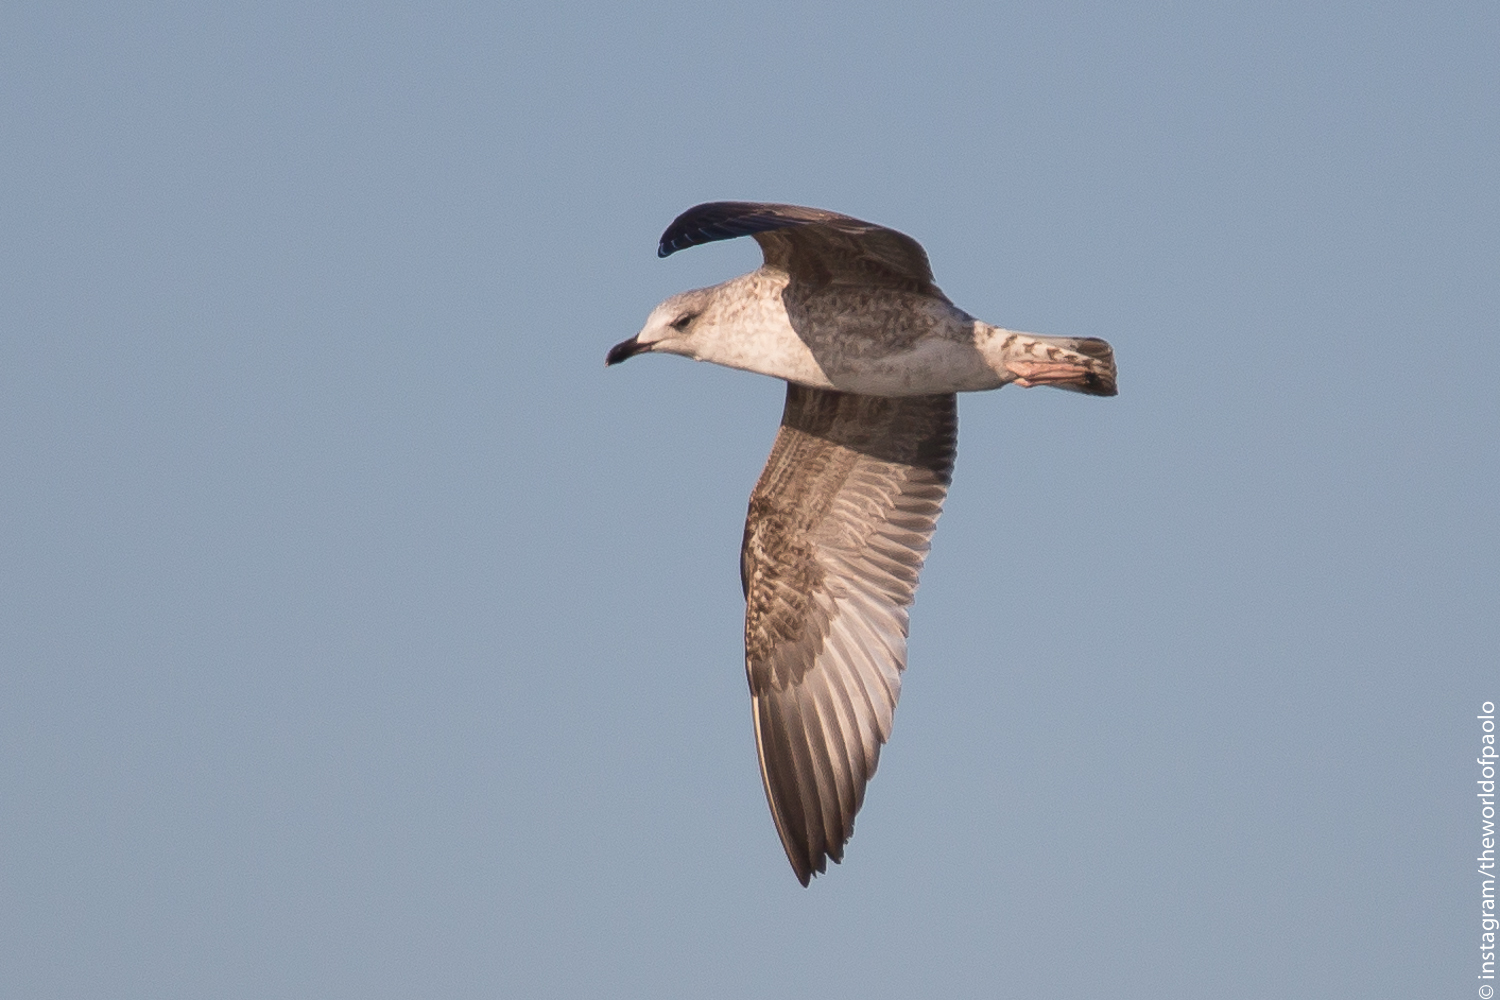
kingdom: Animalia
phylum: Chordata
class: Aves
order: Charadriiformes
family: Laridae
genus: Larus
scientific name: Larus michahellis
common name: Yellow-legged gull
